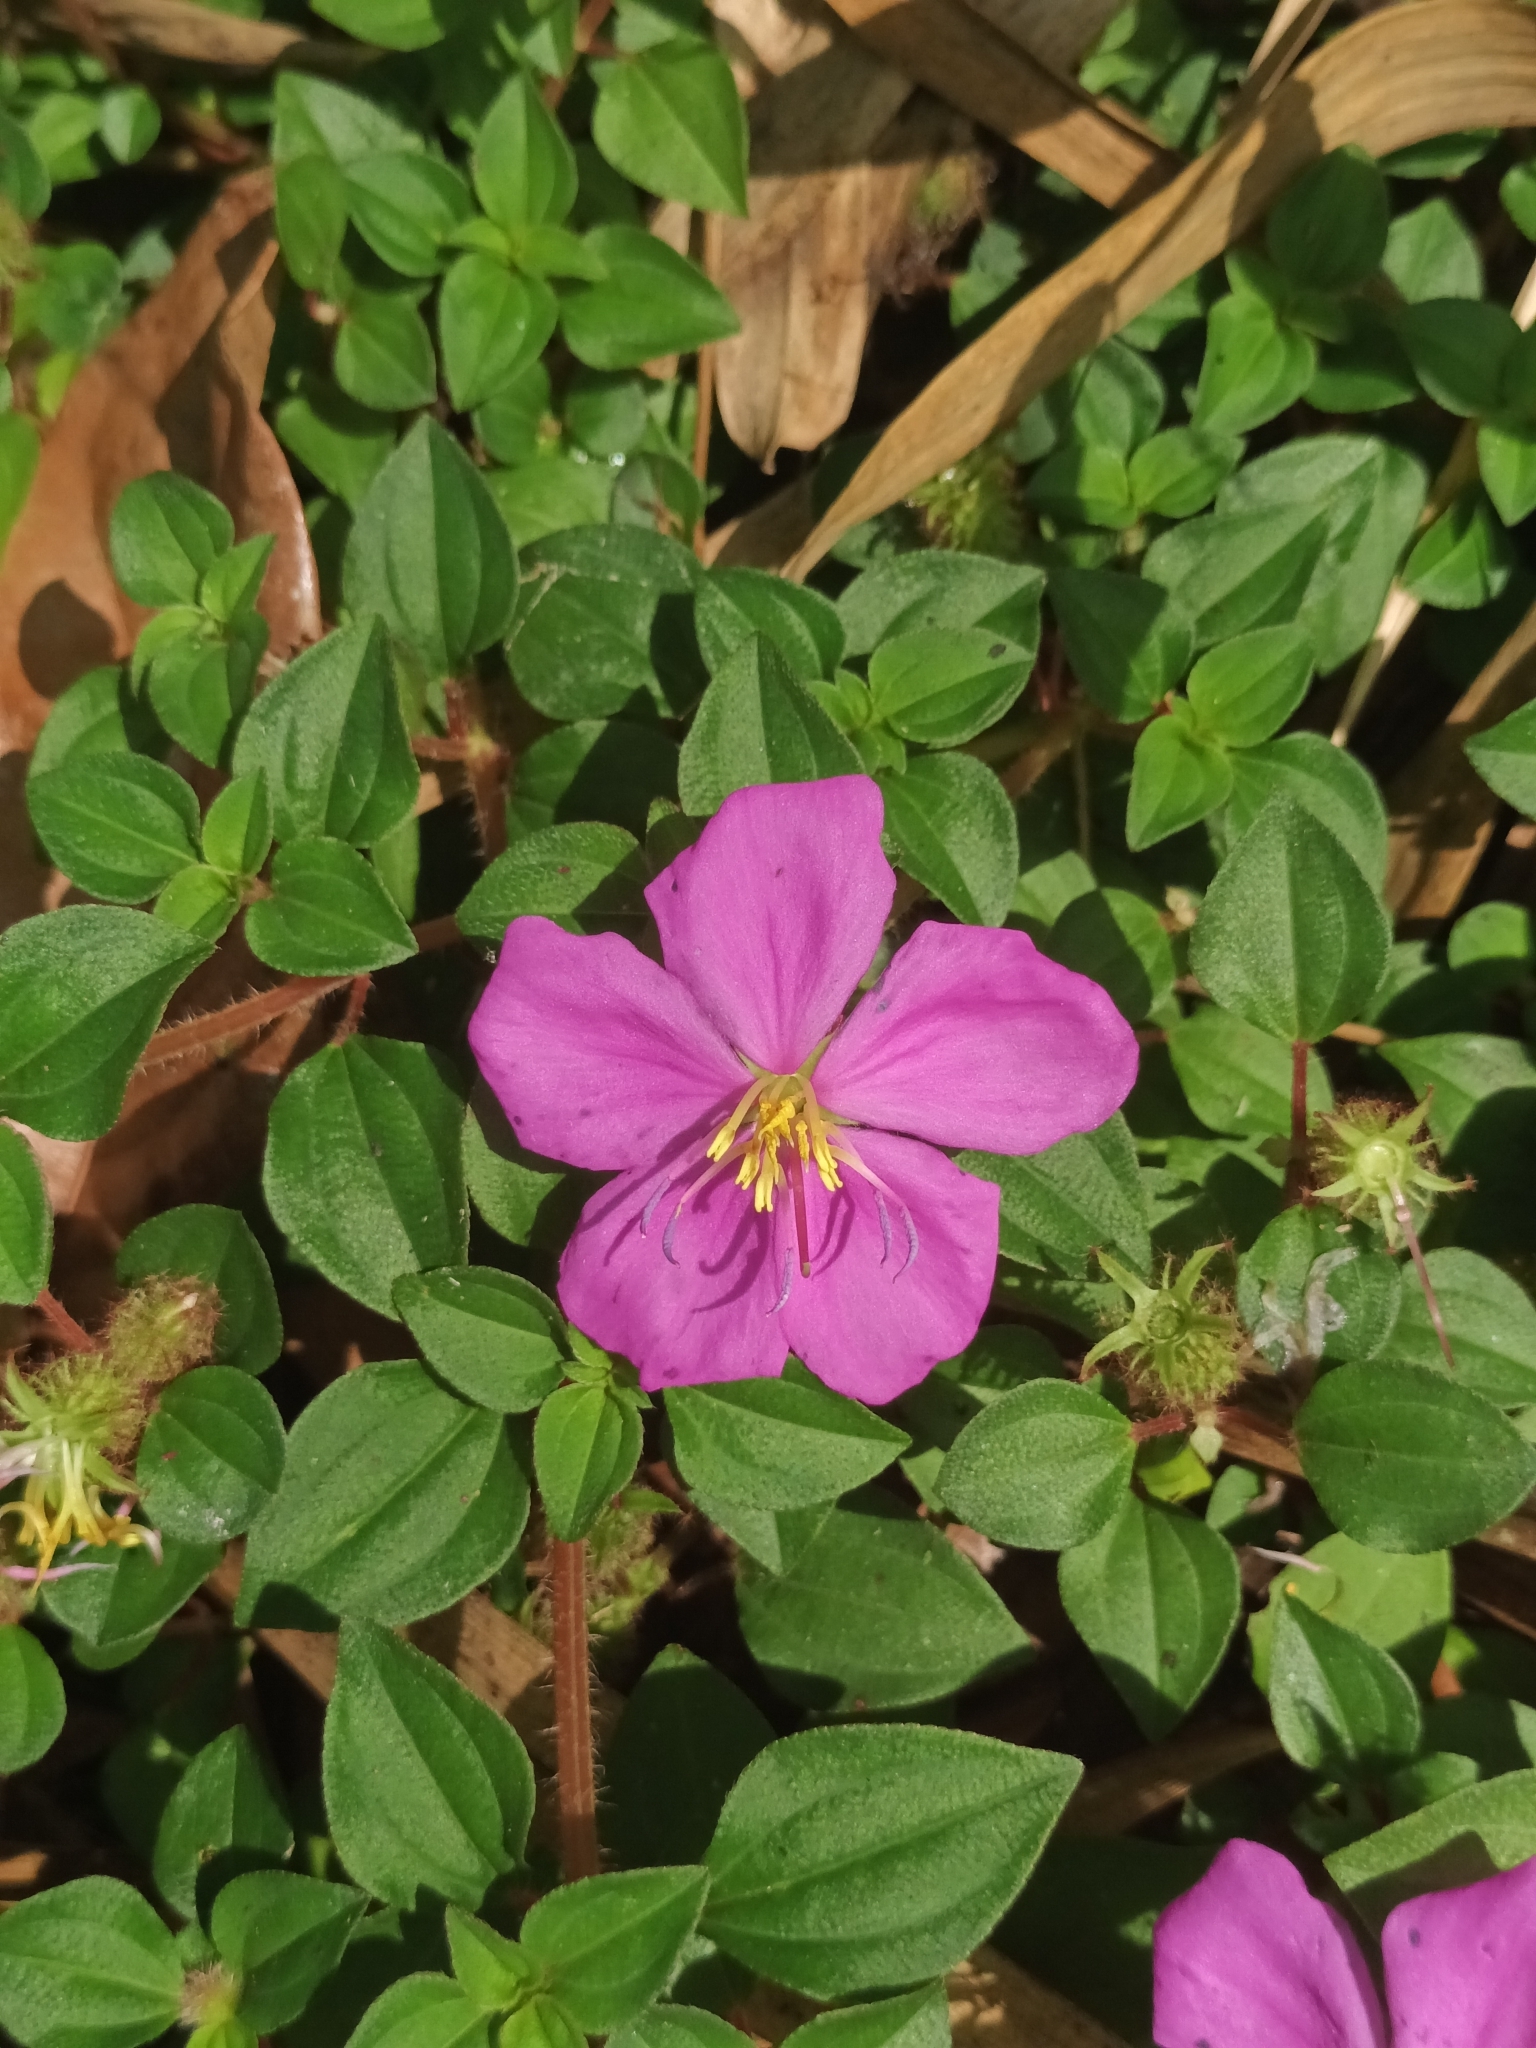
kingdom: Plantae
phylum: Tracheophyta
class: Magnoliopsida
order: Myrtales
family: Melastomataceae
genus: Heterotis
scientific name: Heterotis rotundifolia
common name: Pinklady
